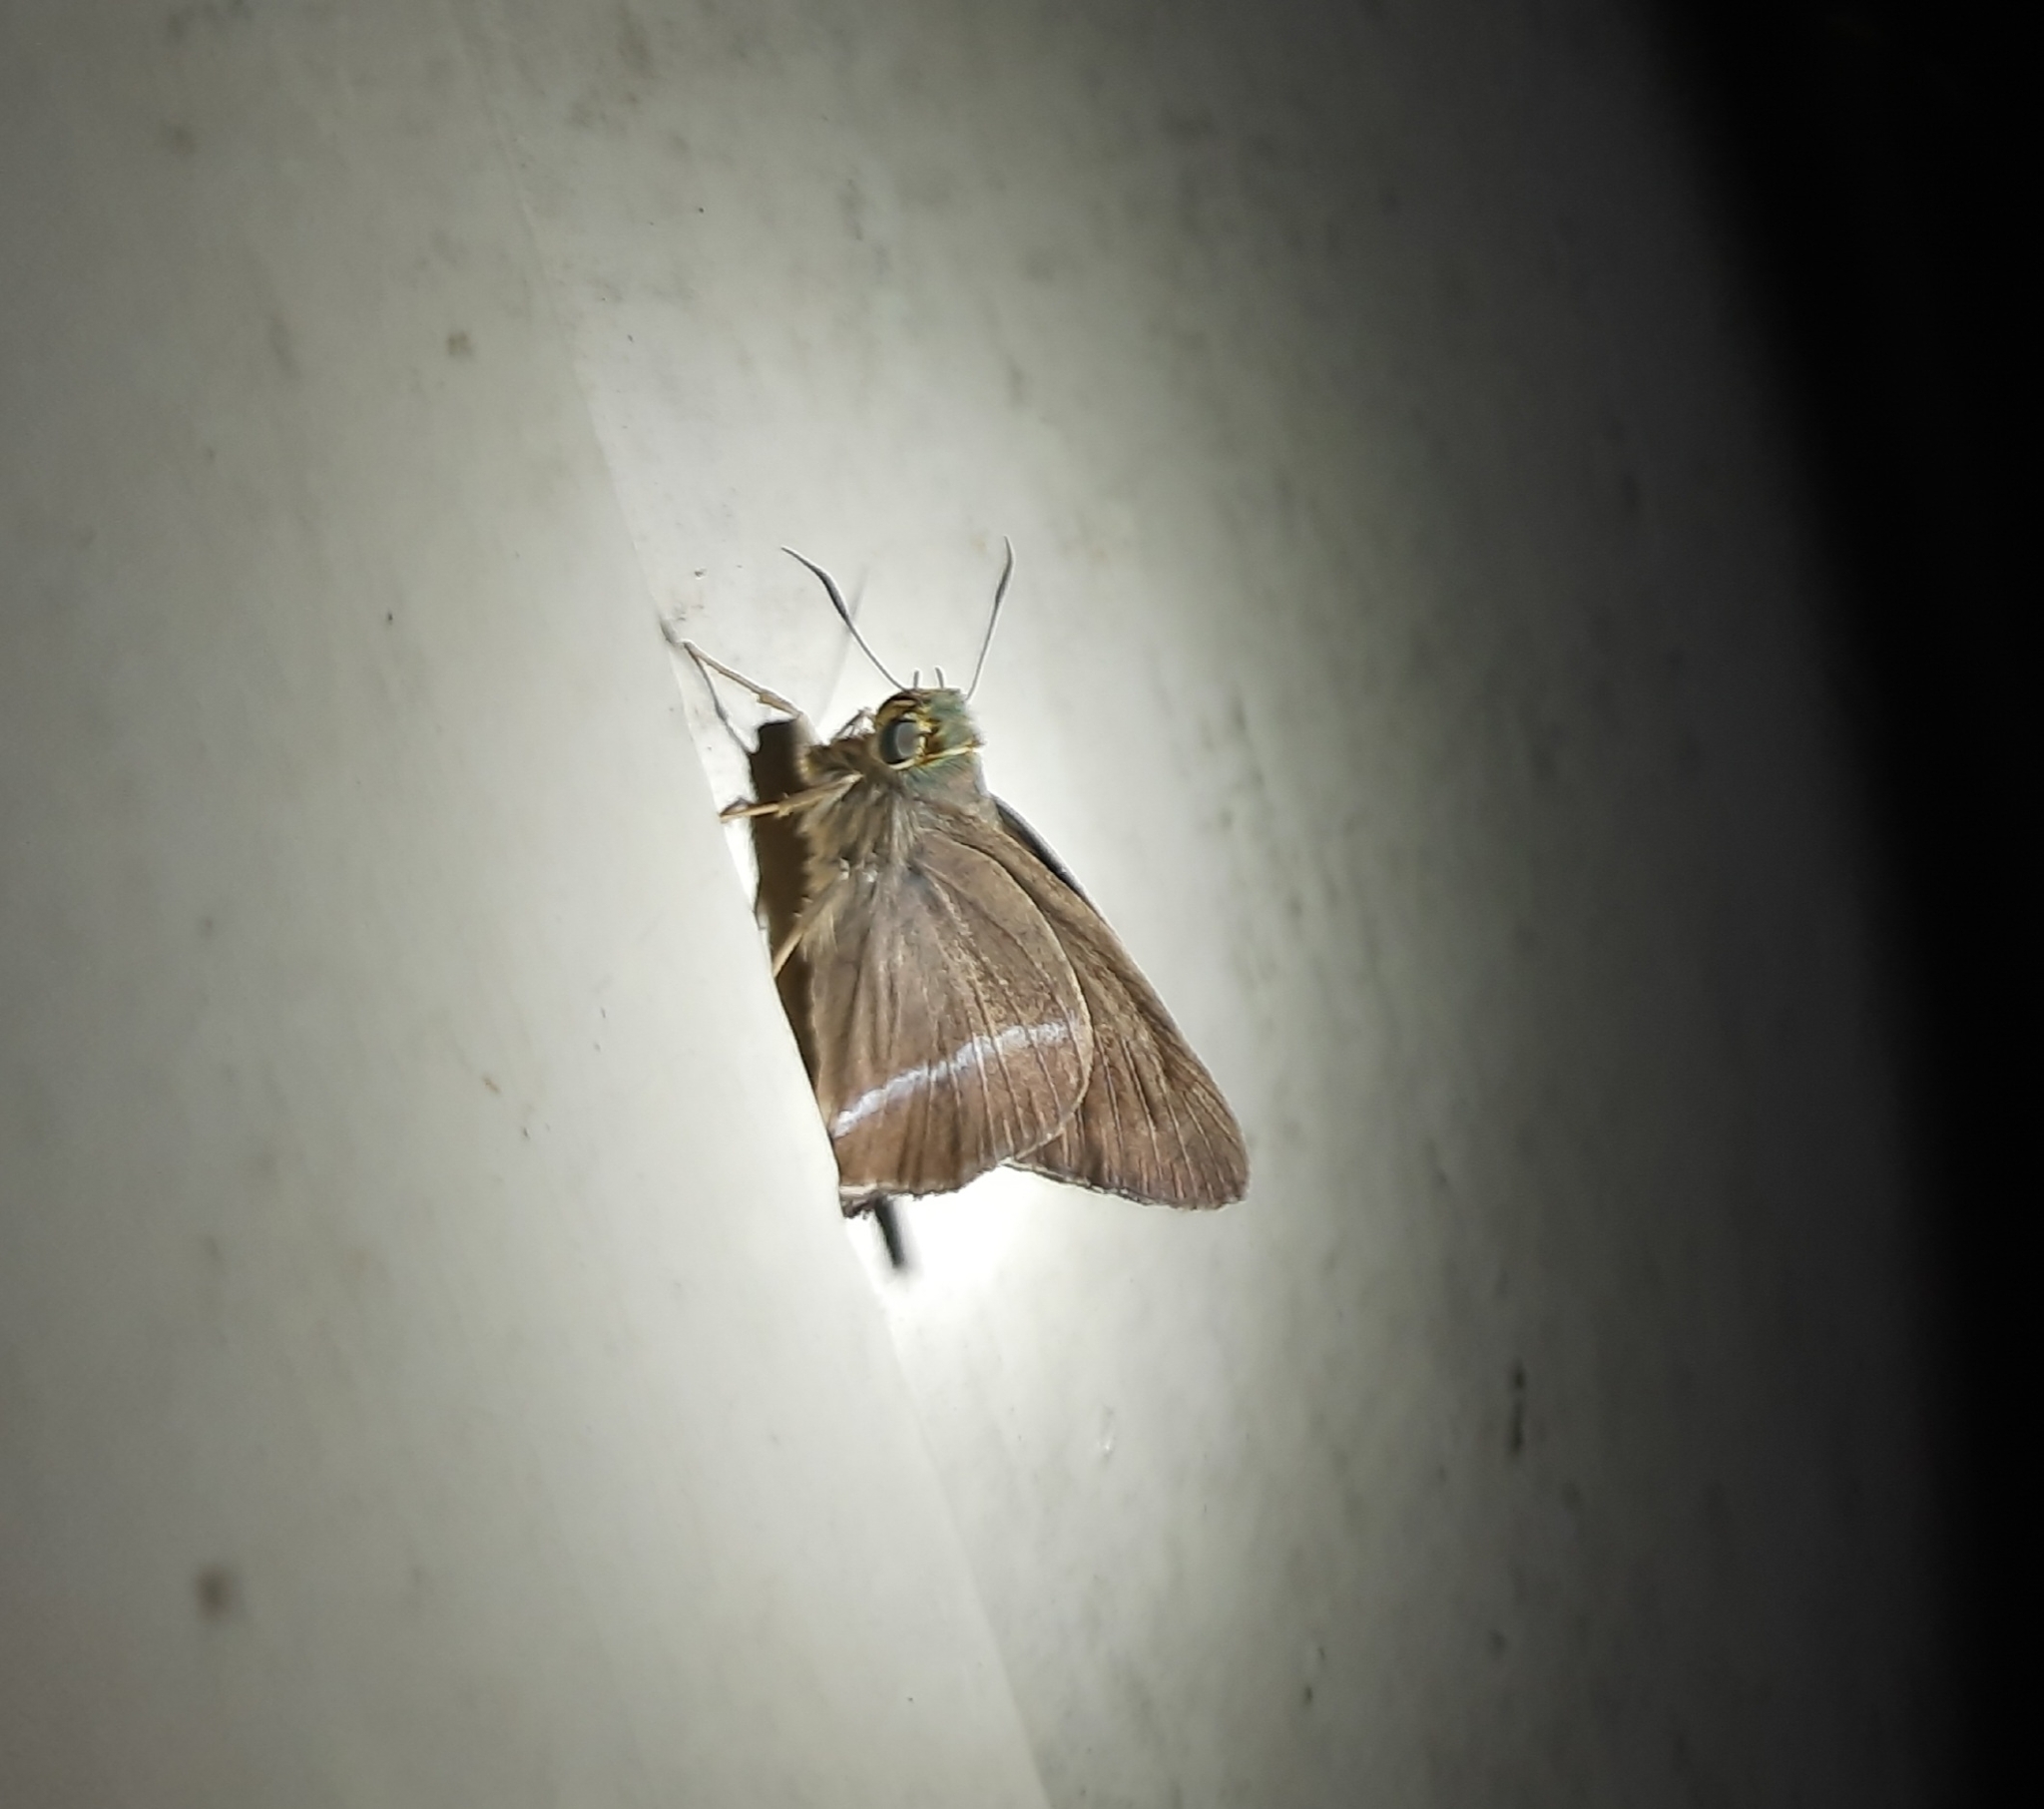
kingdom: Animalia
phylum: Arthropoda
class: Insecta
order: Lepidoptera
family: Hesperiidae
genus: Hasora
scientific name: Hasora chromus
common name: Common banded awl
